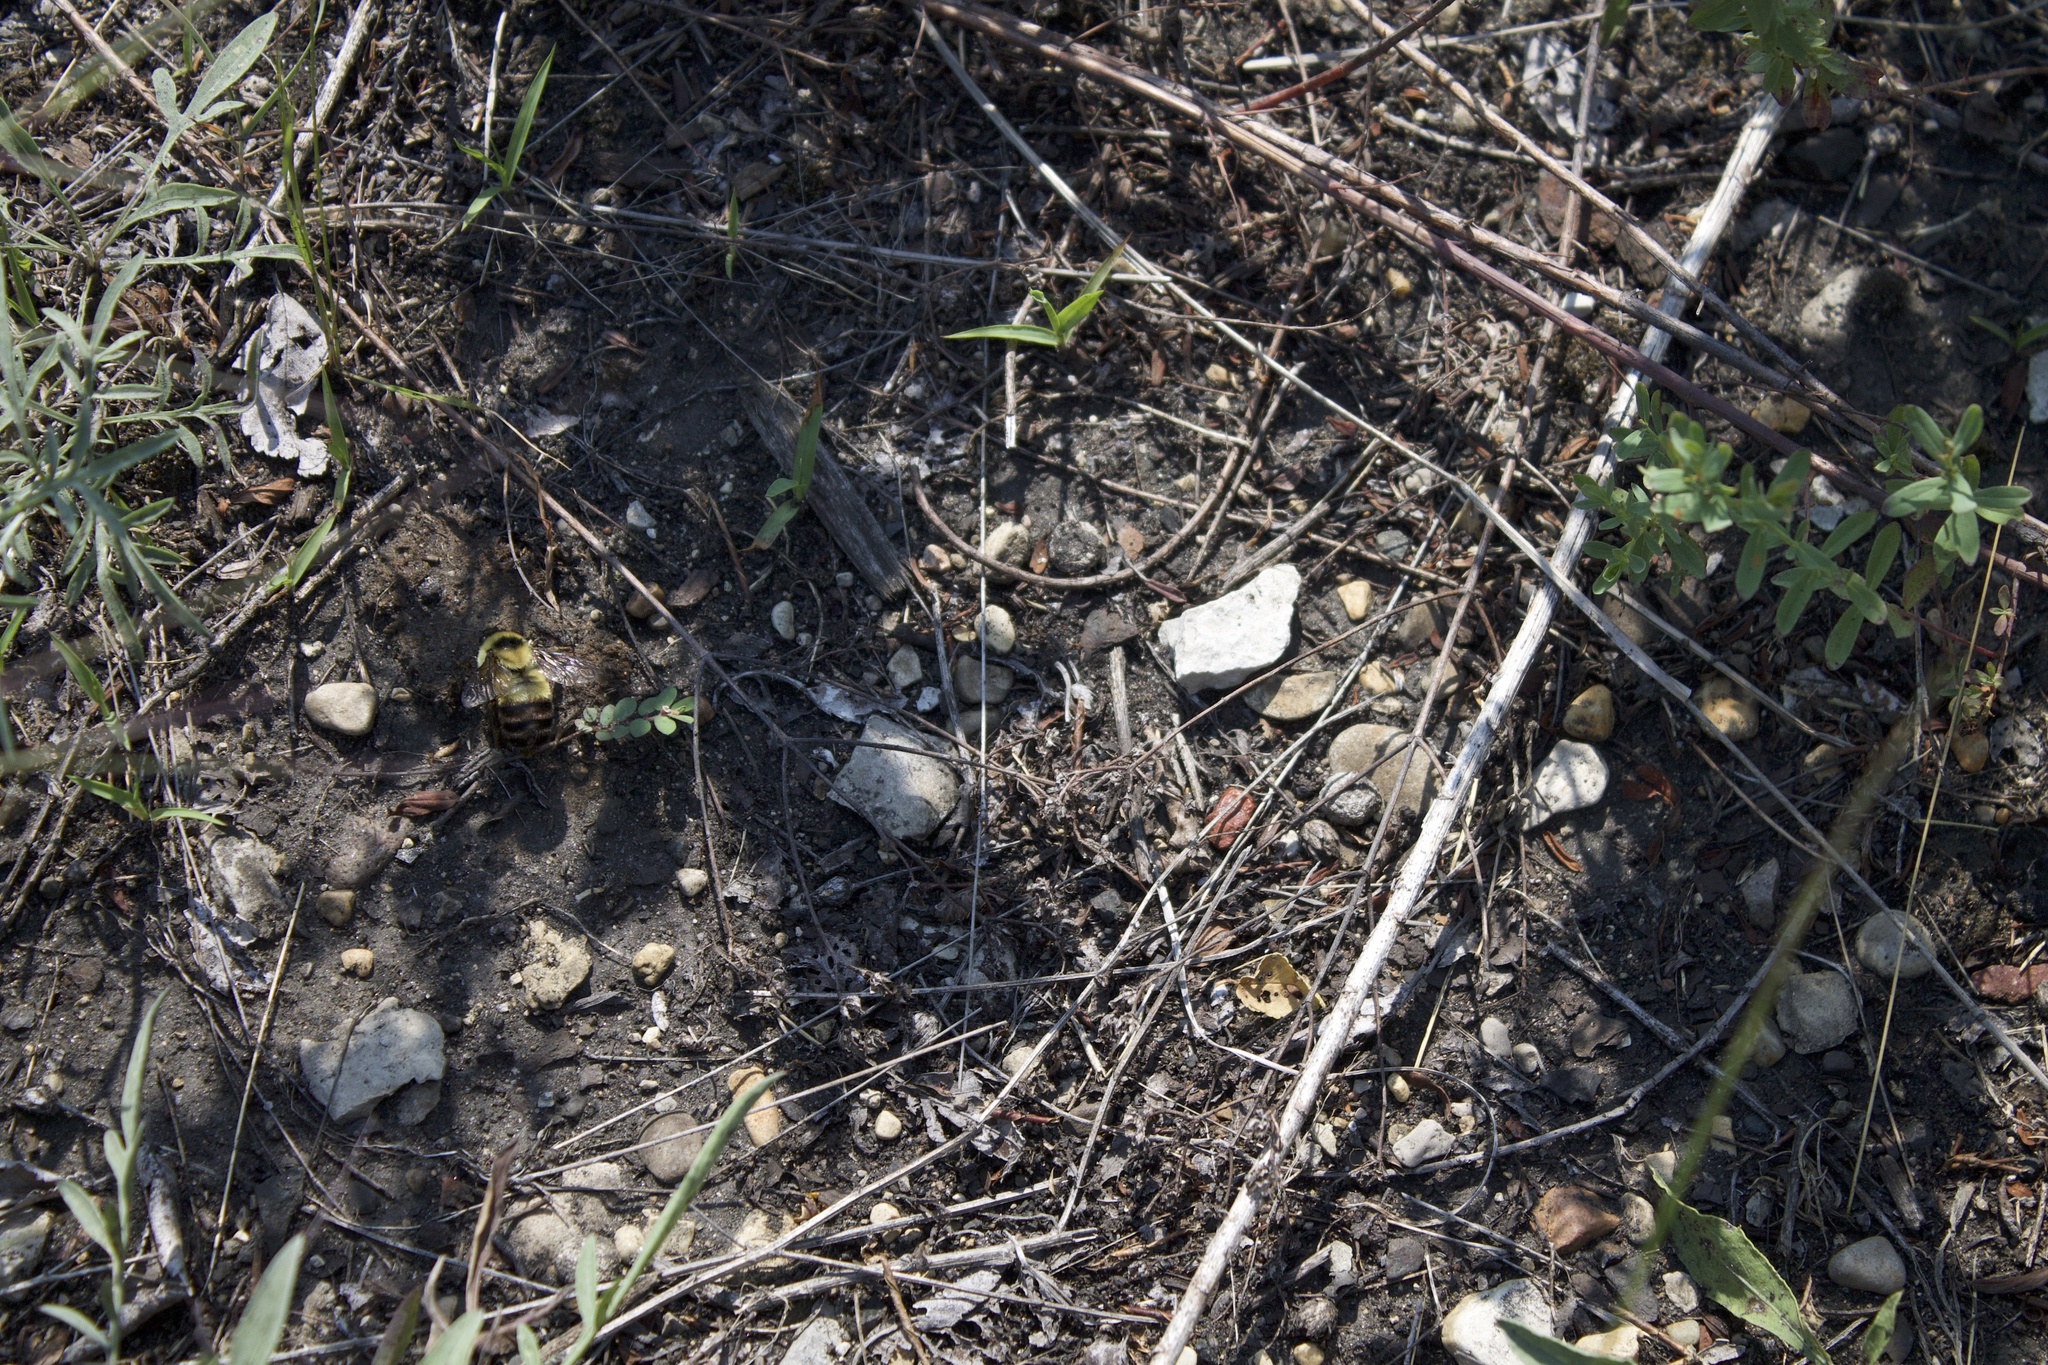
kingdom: Animalia
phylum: Arthropoda
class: Insecta
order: Hymenoptera
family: Apidae
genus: Bombus
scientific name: Bombus rufocinctus
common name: Red-belted bumble bee
